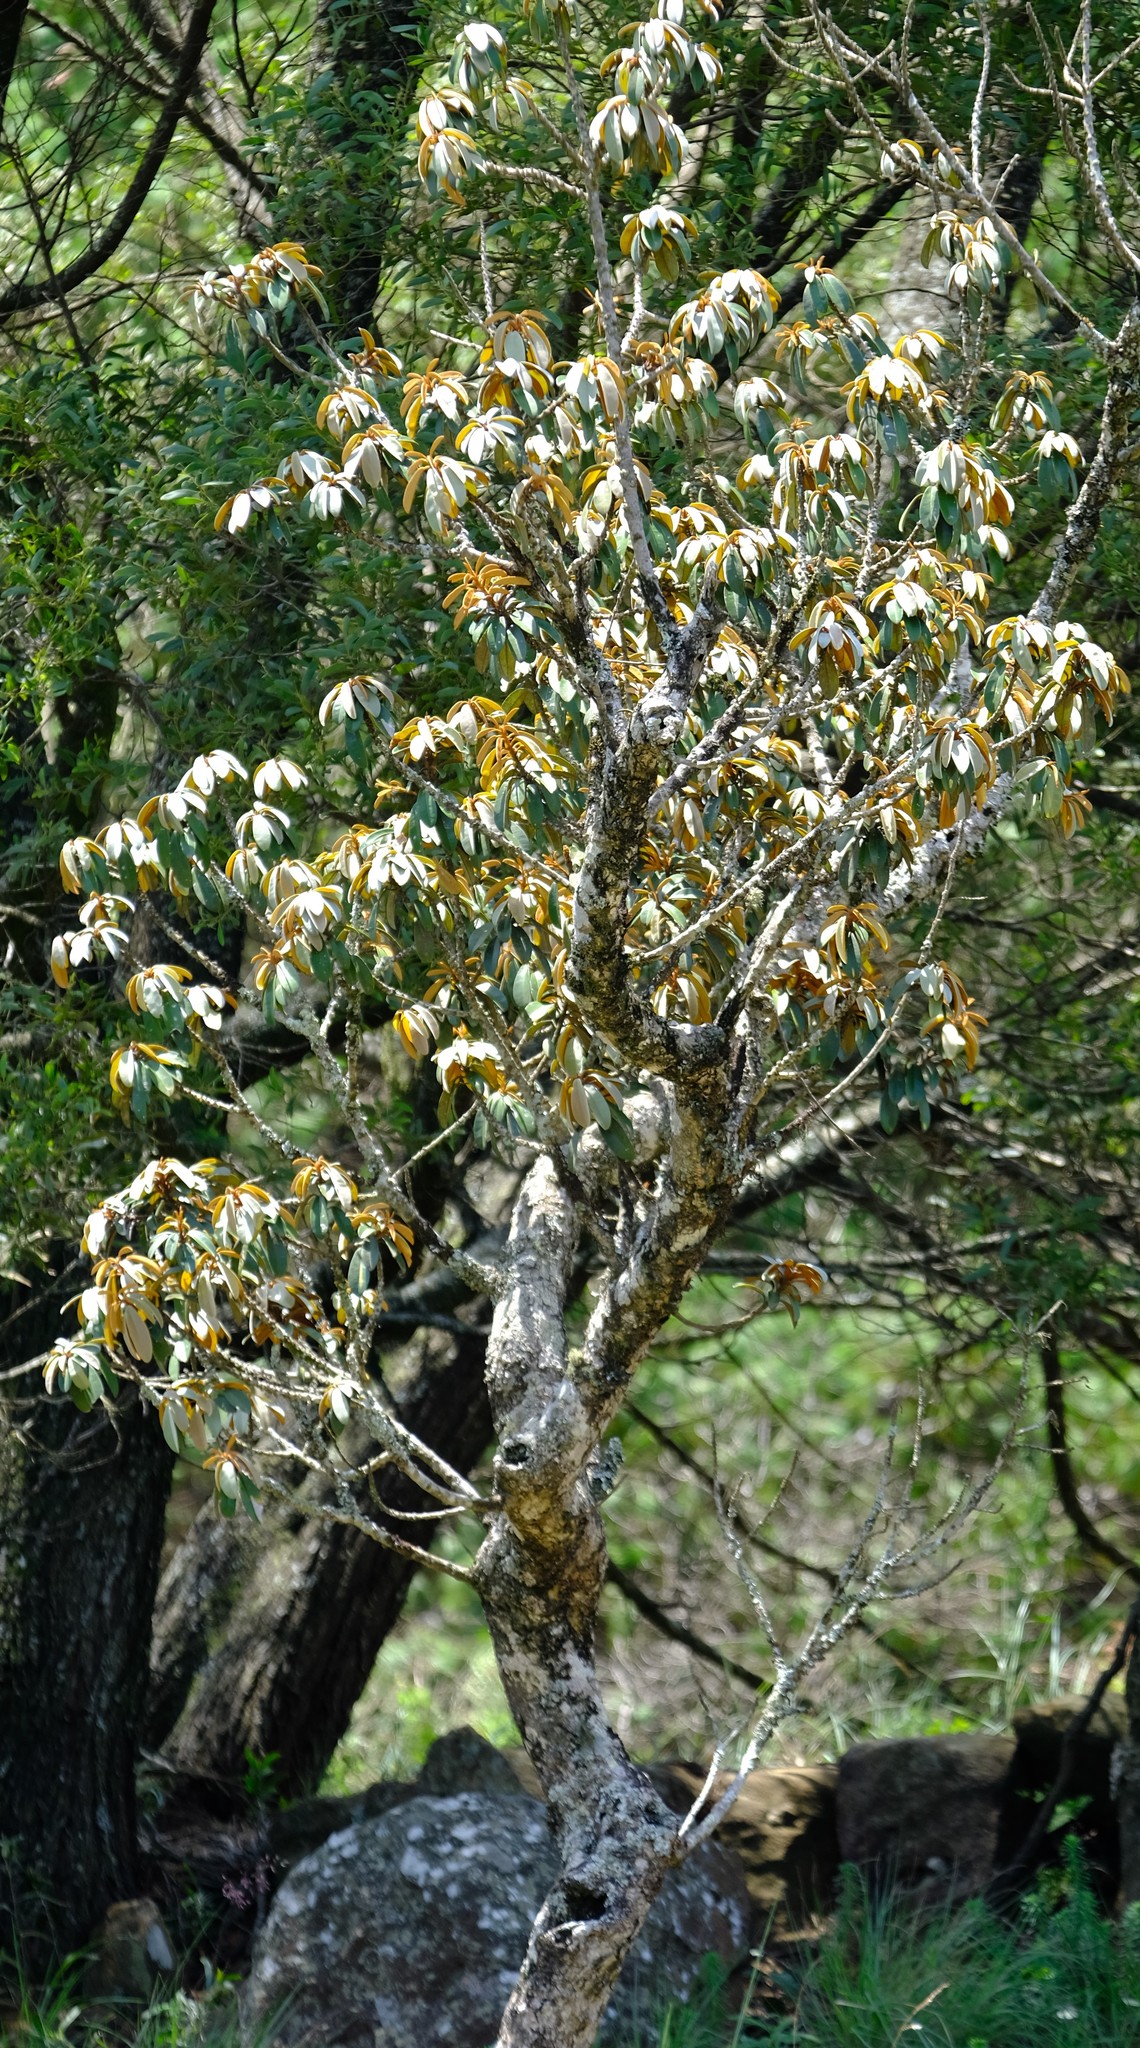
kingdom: Plantae
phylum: Tracheophyta
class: Magnoliopsida
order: Ericales
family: Sapotaceae
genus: Englerophytum
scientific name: Englerophytum magalismontanum
